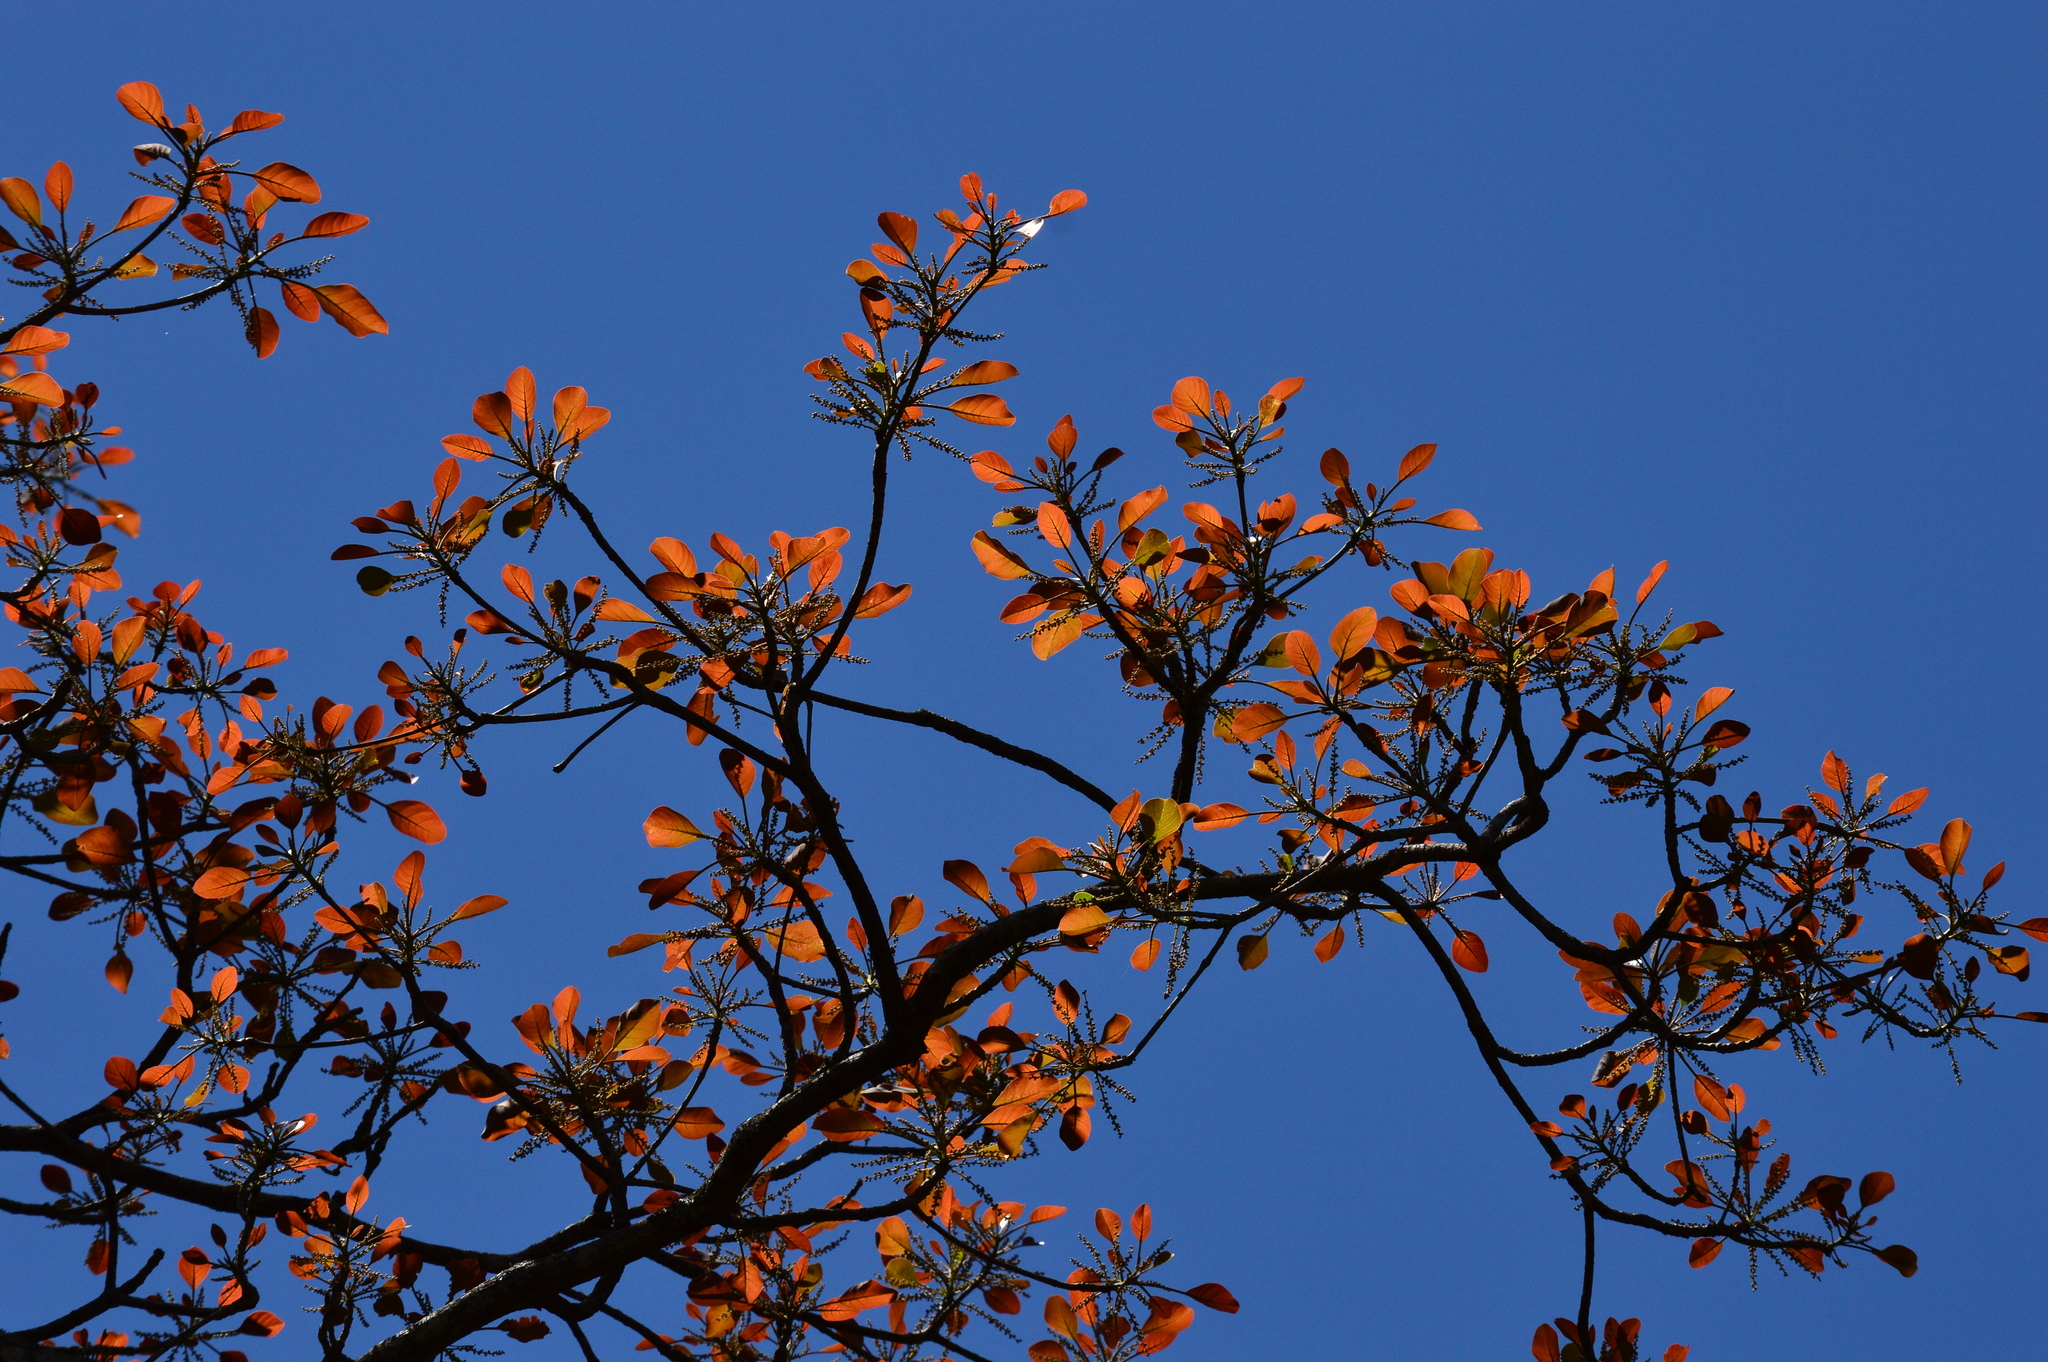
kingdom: Plantae
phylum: Tracheophyta
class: Magnoliopsida
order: Myrtales
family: Combretaceae
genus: Terminalia
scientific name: Terminalia bellirica
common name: Beleric myrobalan
